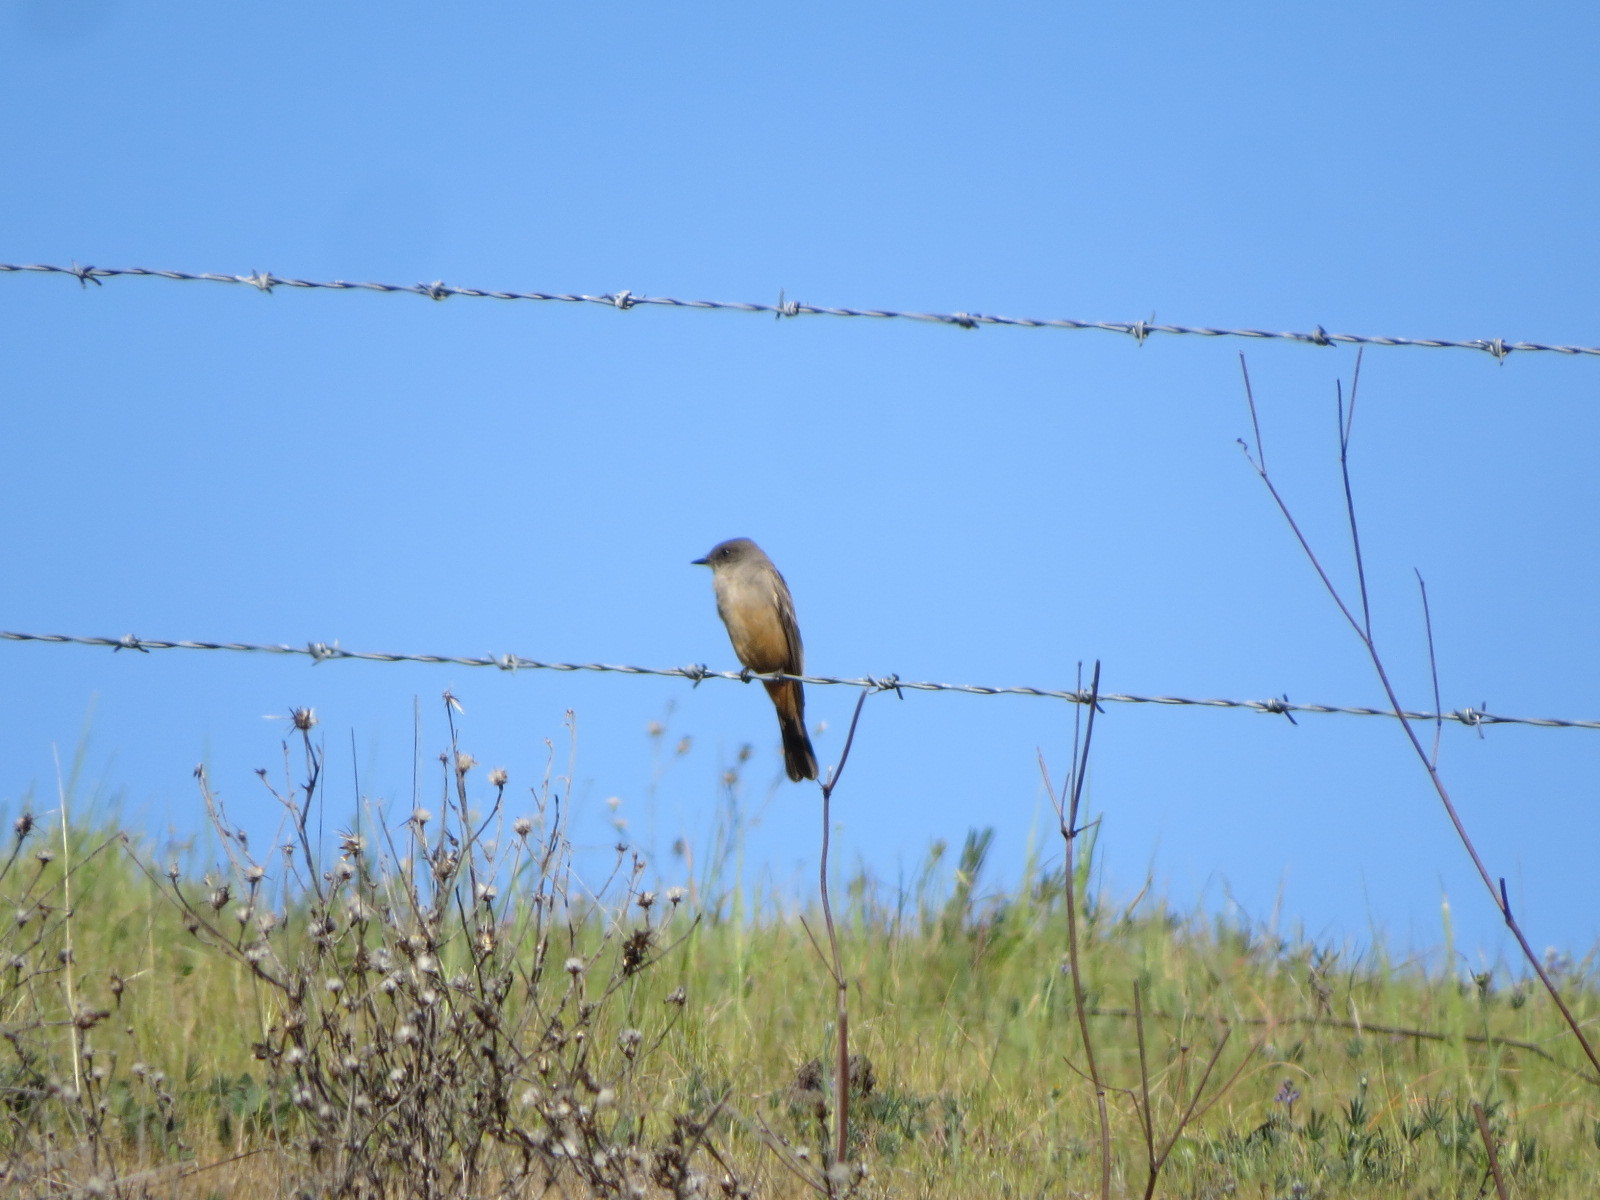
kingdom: Animalia
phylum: Chordata
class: Aves
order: Passeriformes
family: Tyrannidae
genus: Sayornis
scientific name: Sayornis saya
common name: Say's phoebe
